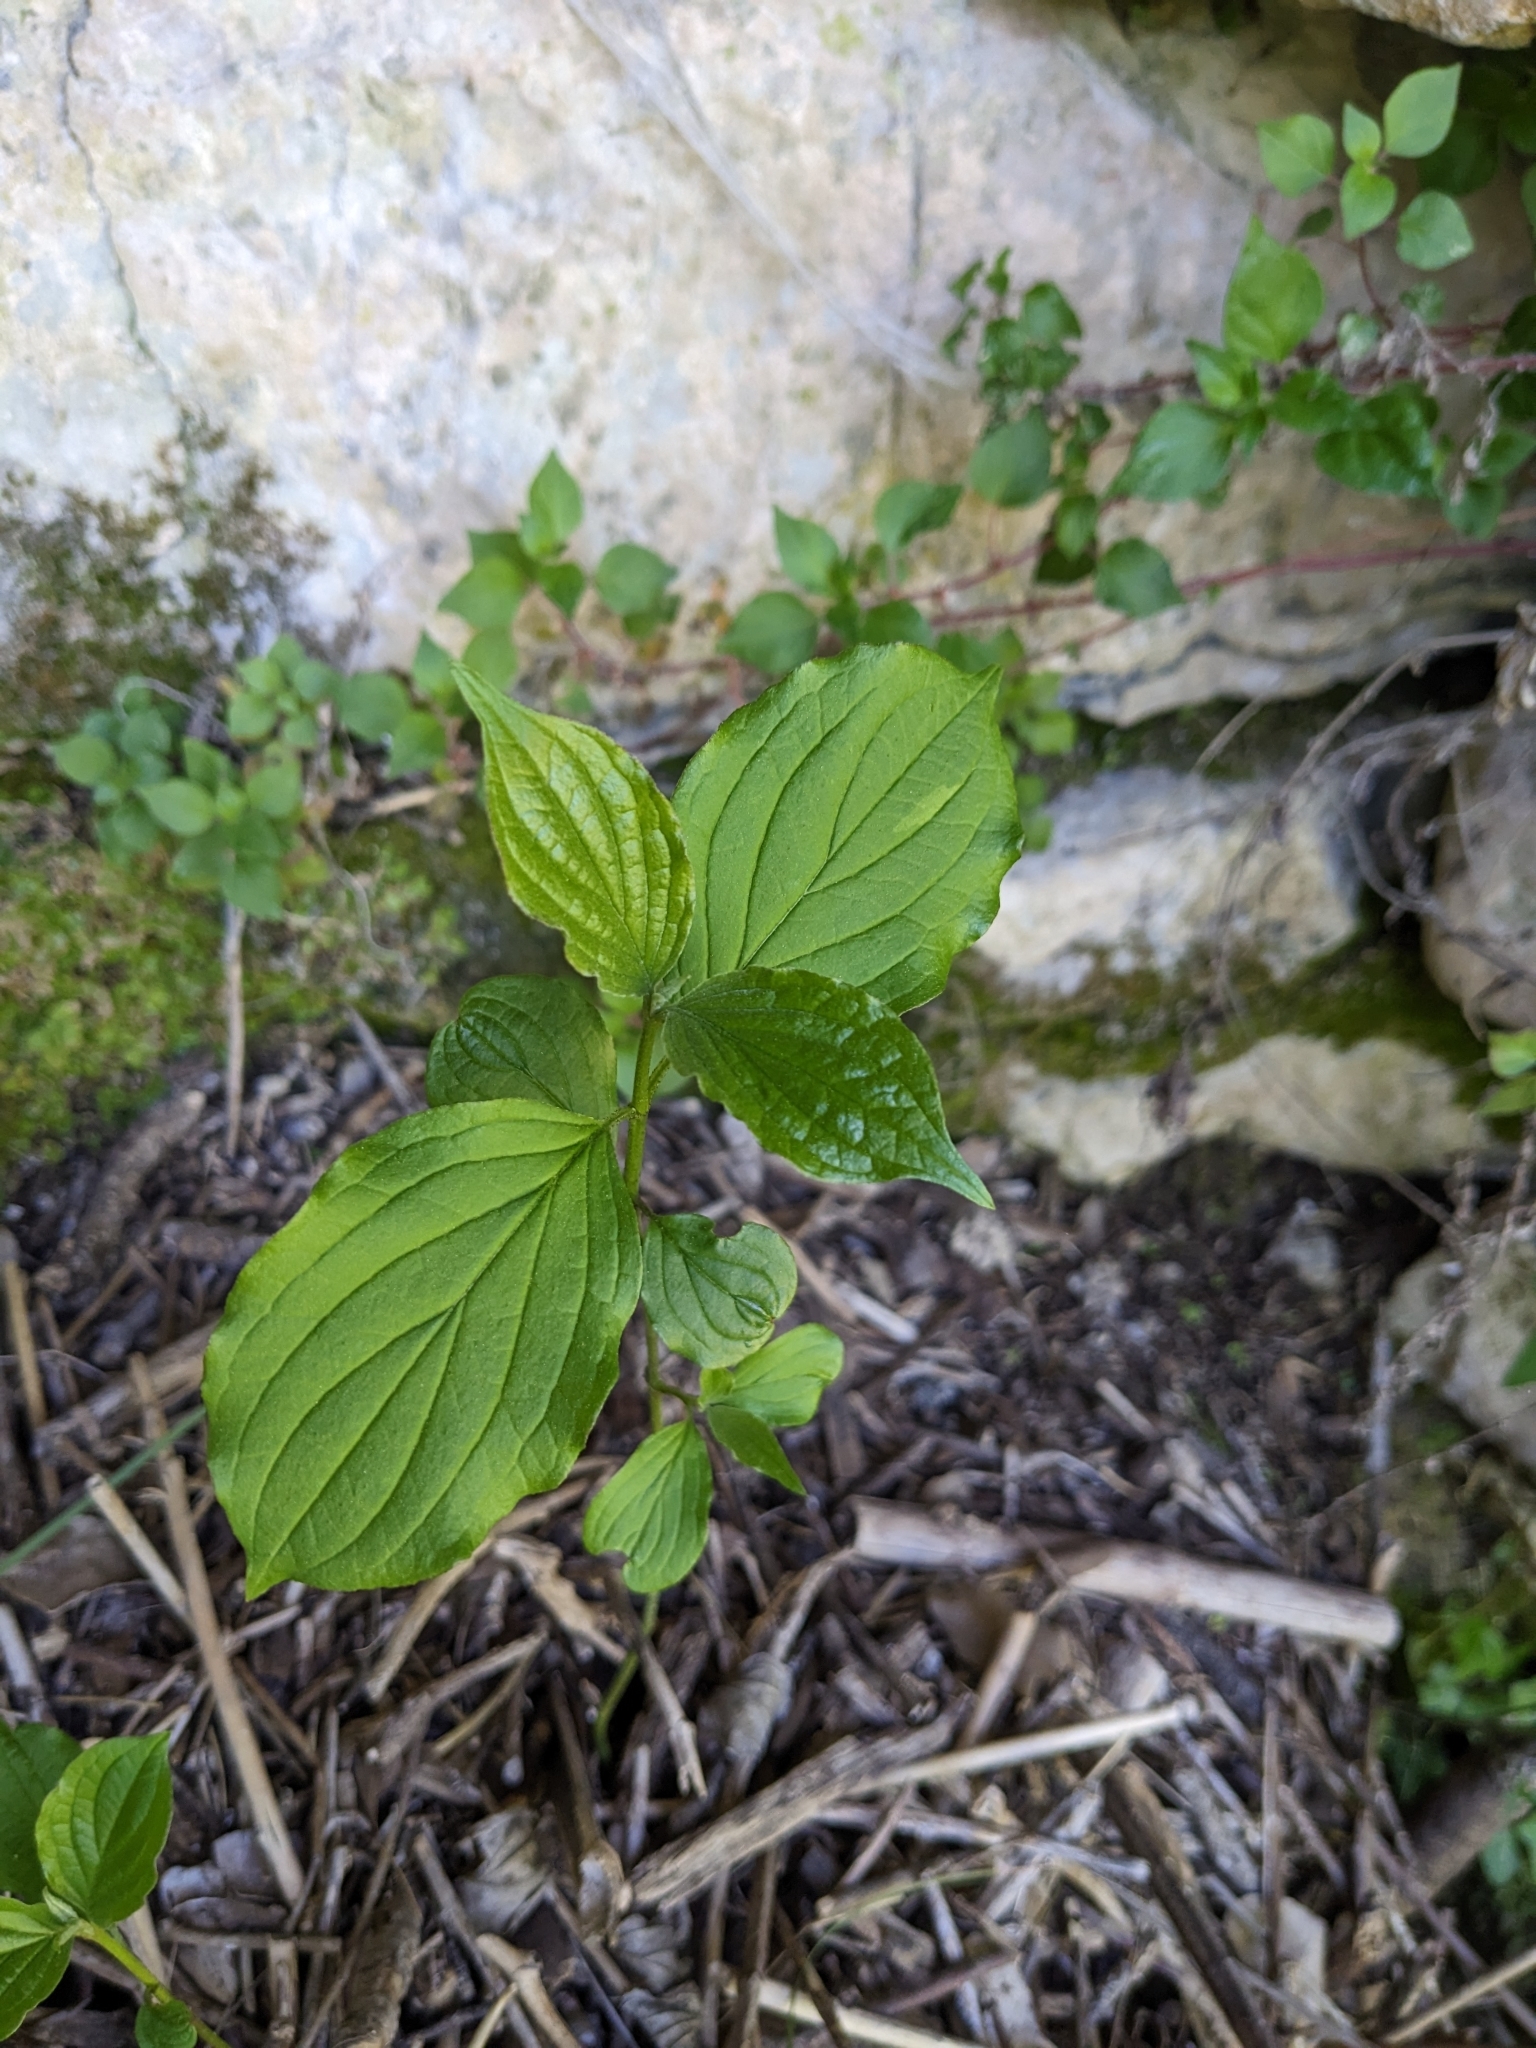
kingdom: Plantae
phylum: Tracheophyta
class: Magnoliopsida
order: Cornales
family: Cornaceae
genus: Cornus
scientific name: Cornus sanguinea
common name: Dogwood
